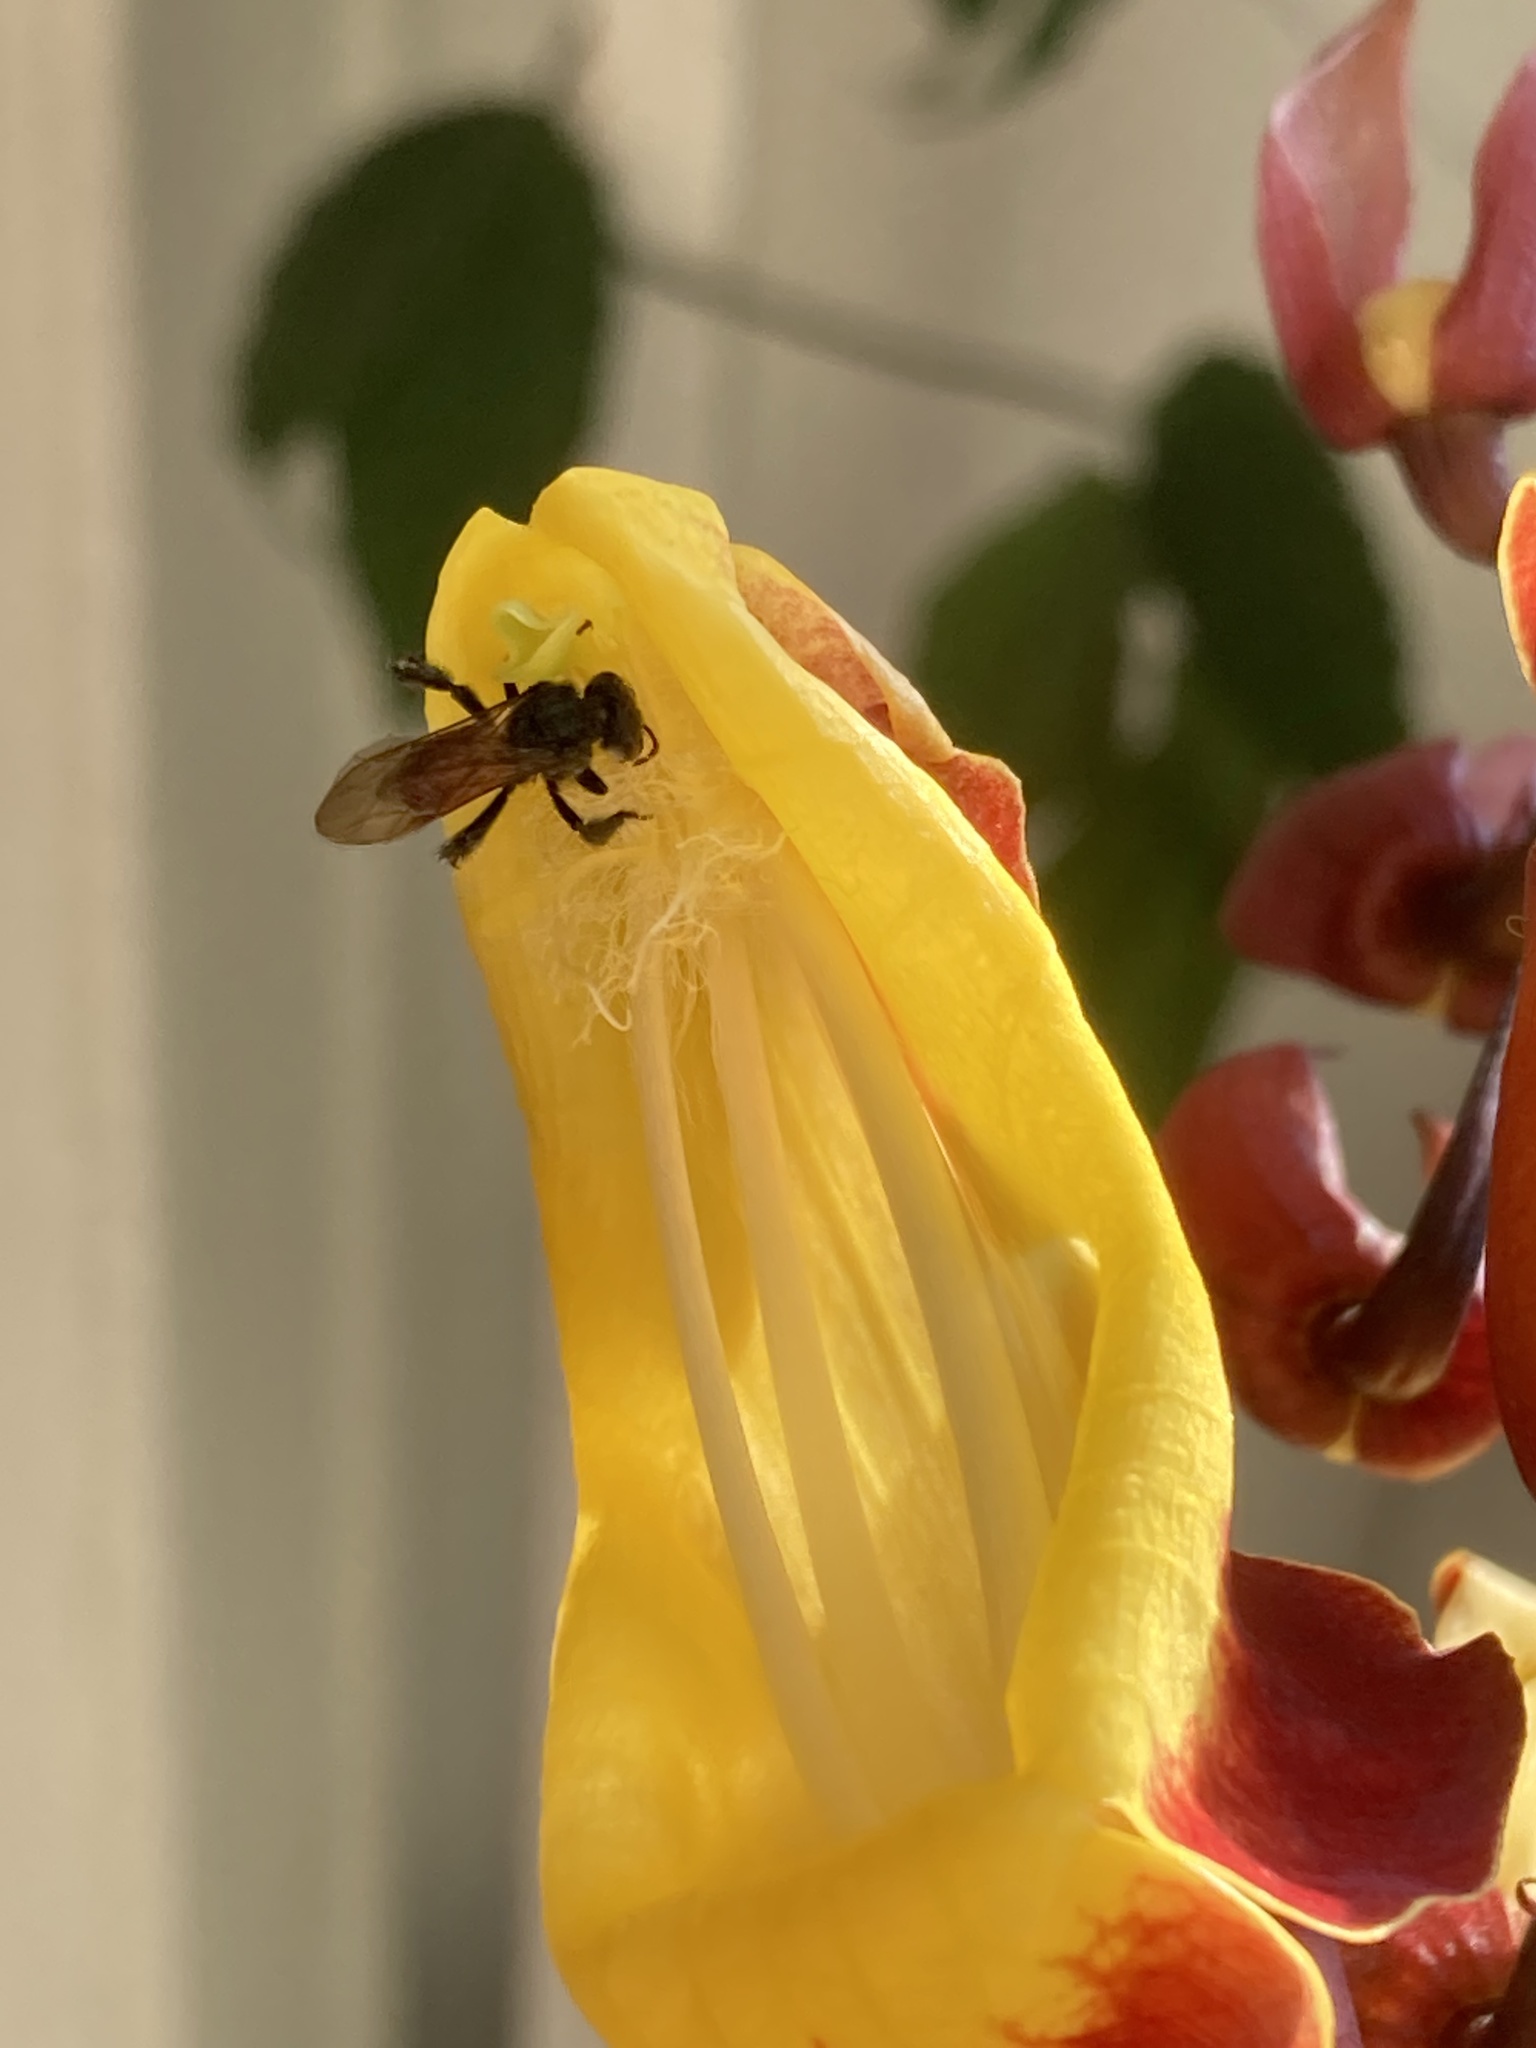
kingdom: Animalia
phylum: Arthropoda
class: Insecta
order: Hymenoptera
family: Apidae
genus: Trigona
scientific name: Trigona fulviventris
